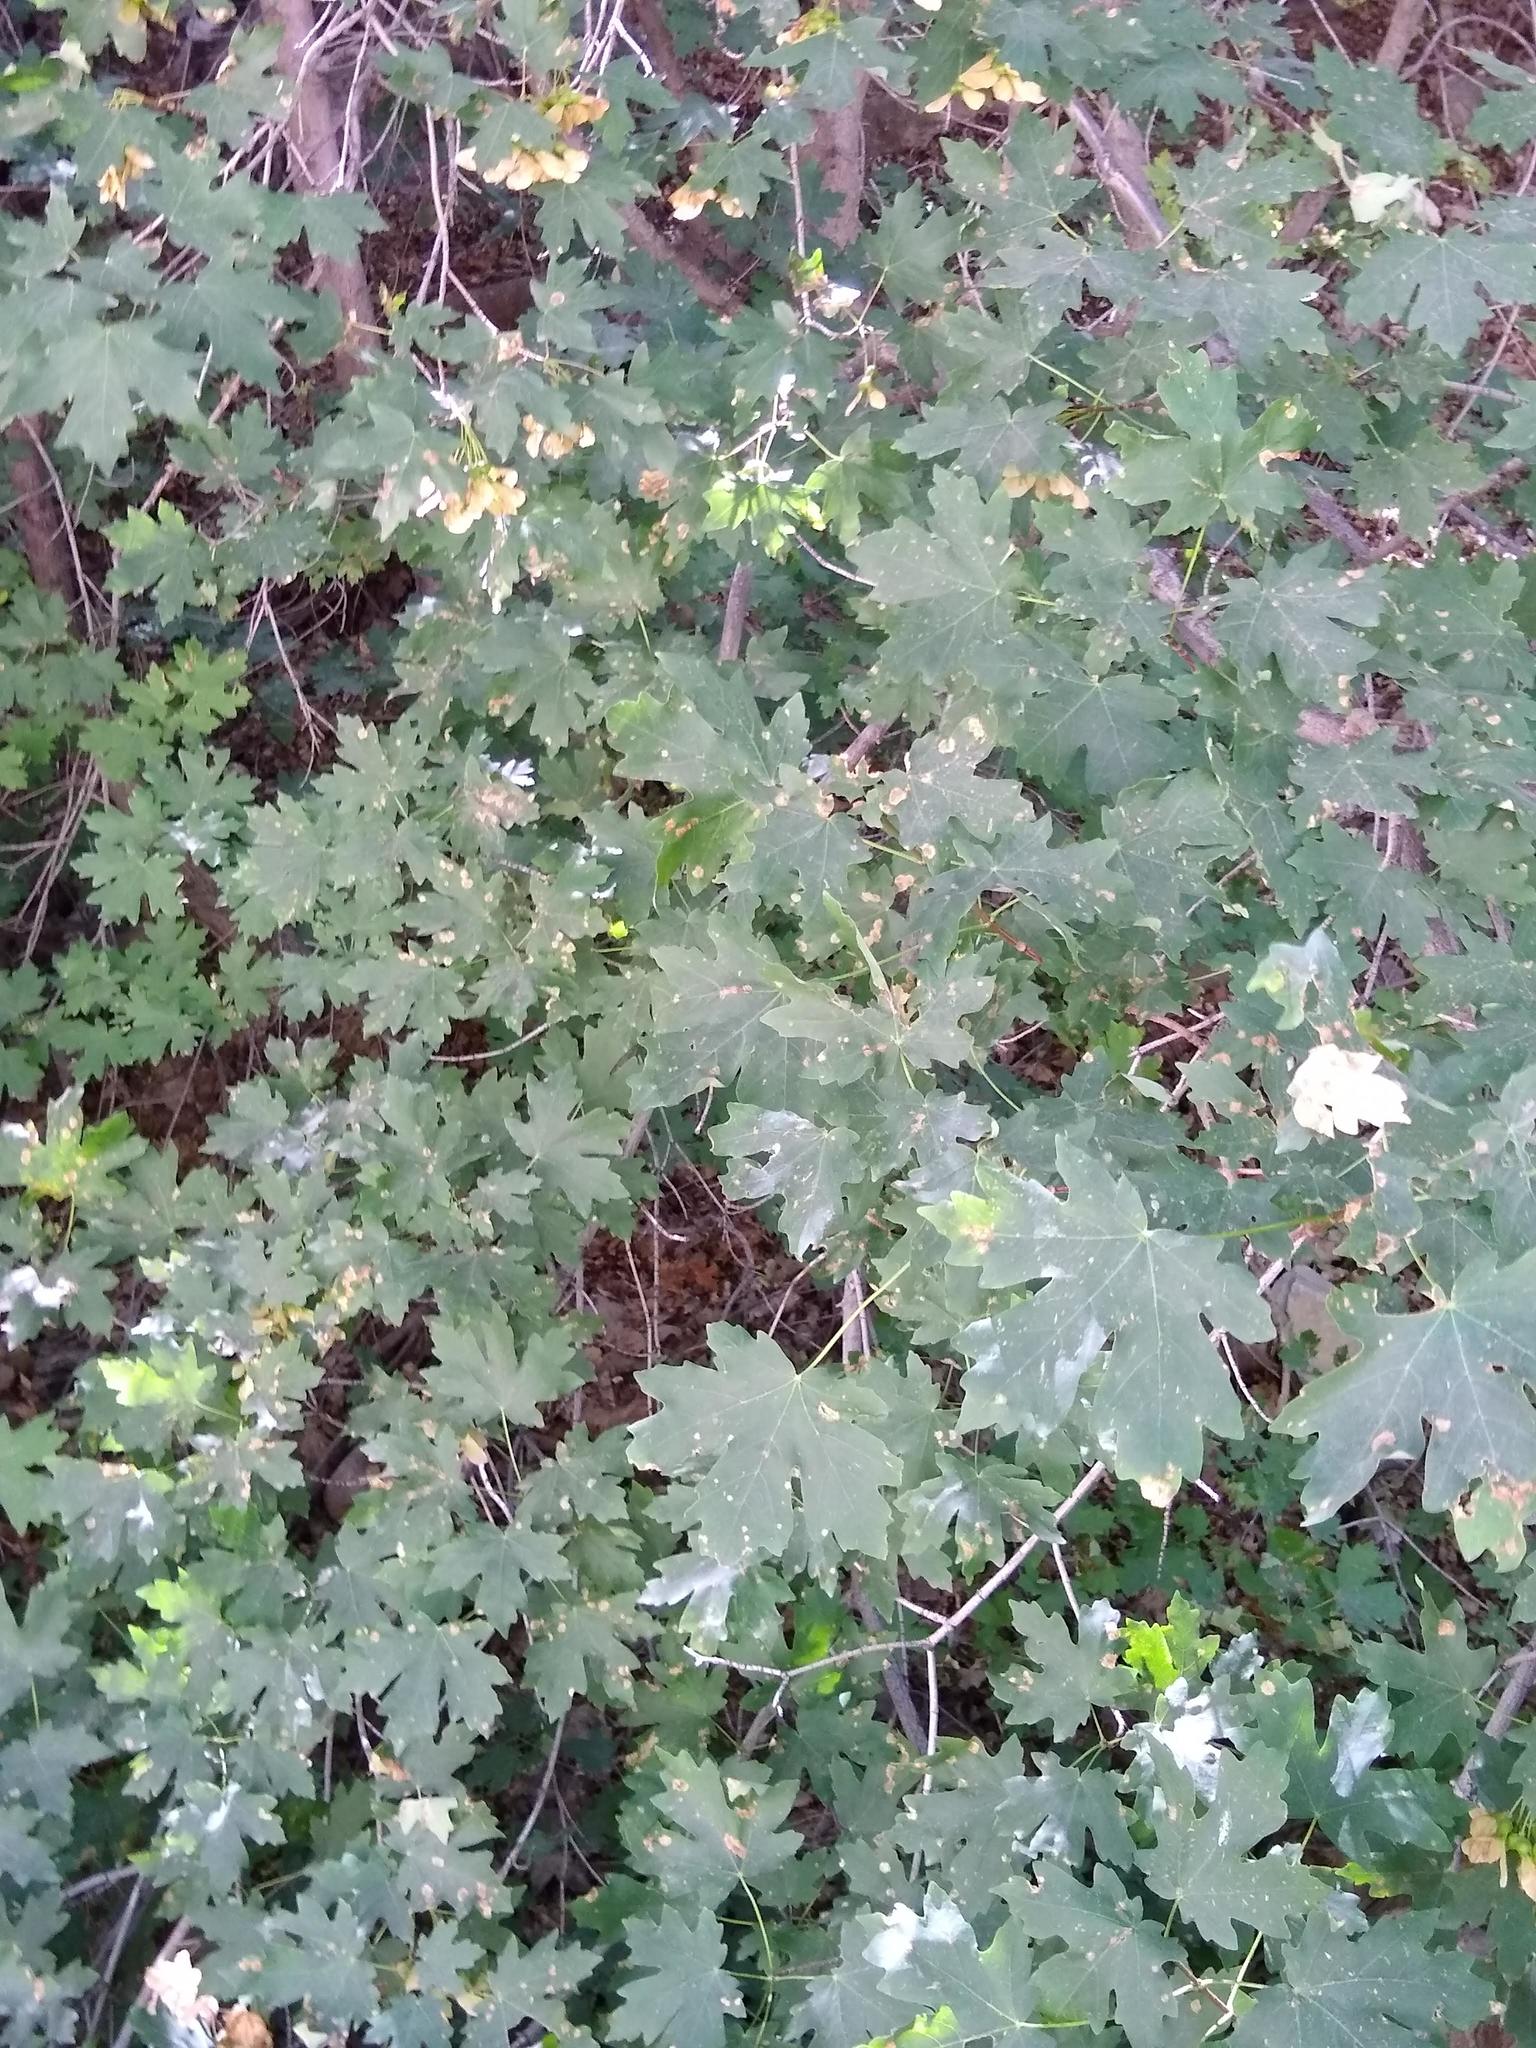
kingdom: Plantae
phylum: Tracheophyta
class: Magnoliopsida
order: Sapindales
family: Sapindaceae
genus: Acer
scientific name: Acer grandidentatum
